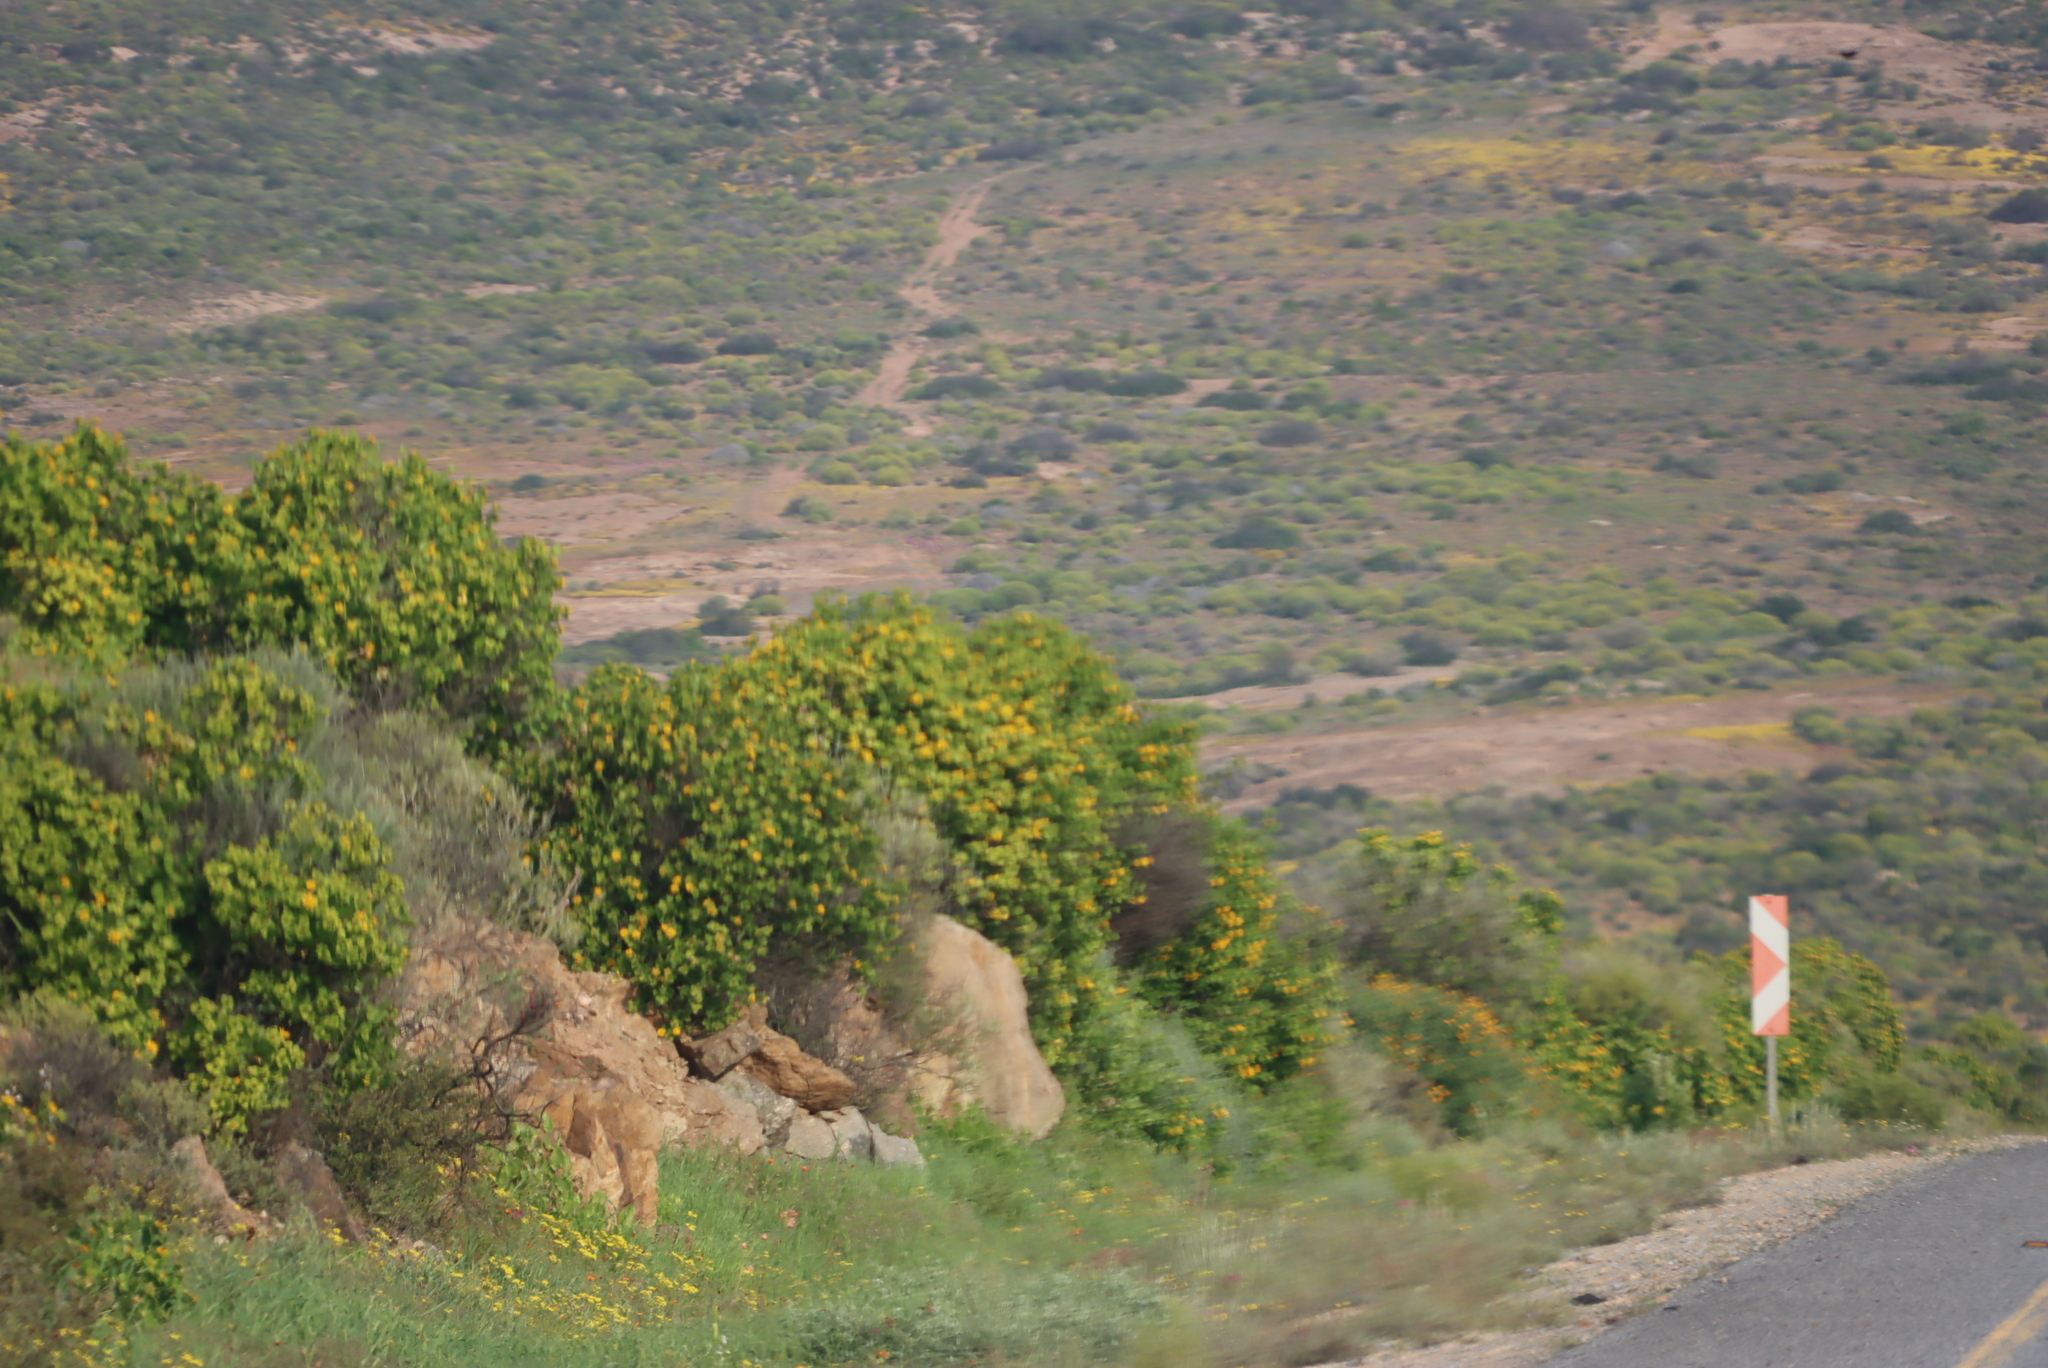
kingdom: Plantae
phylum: Tracheophyta
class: Magnoliopsida
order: Asterales
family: Asteraceae
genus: Didelta
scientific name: Didelta spinosa
